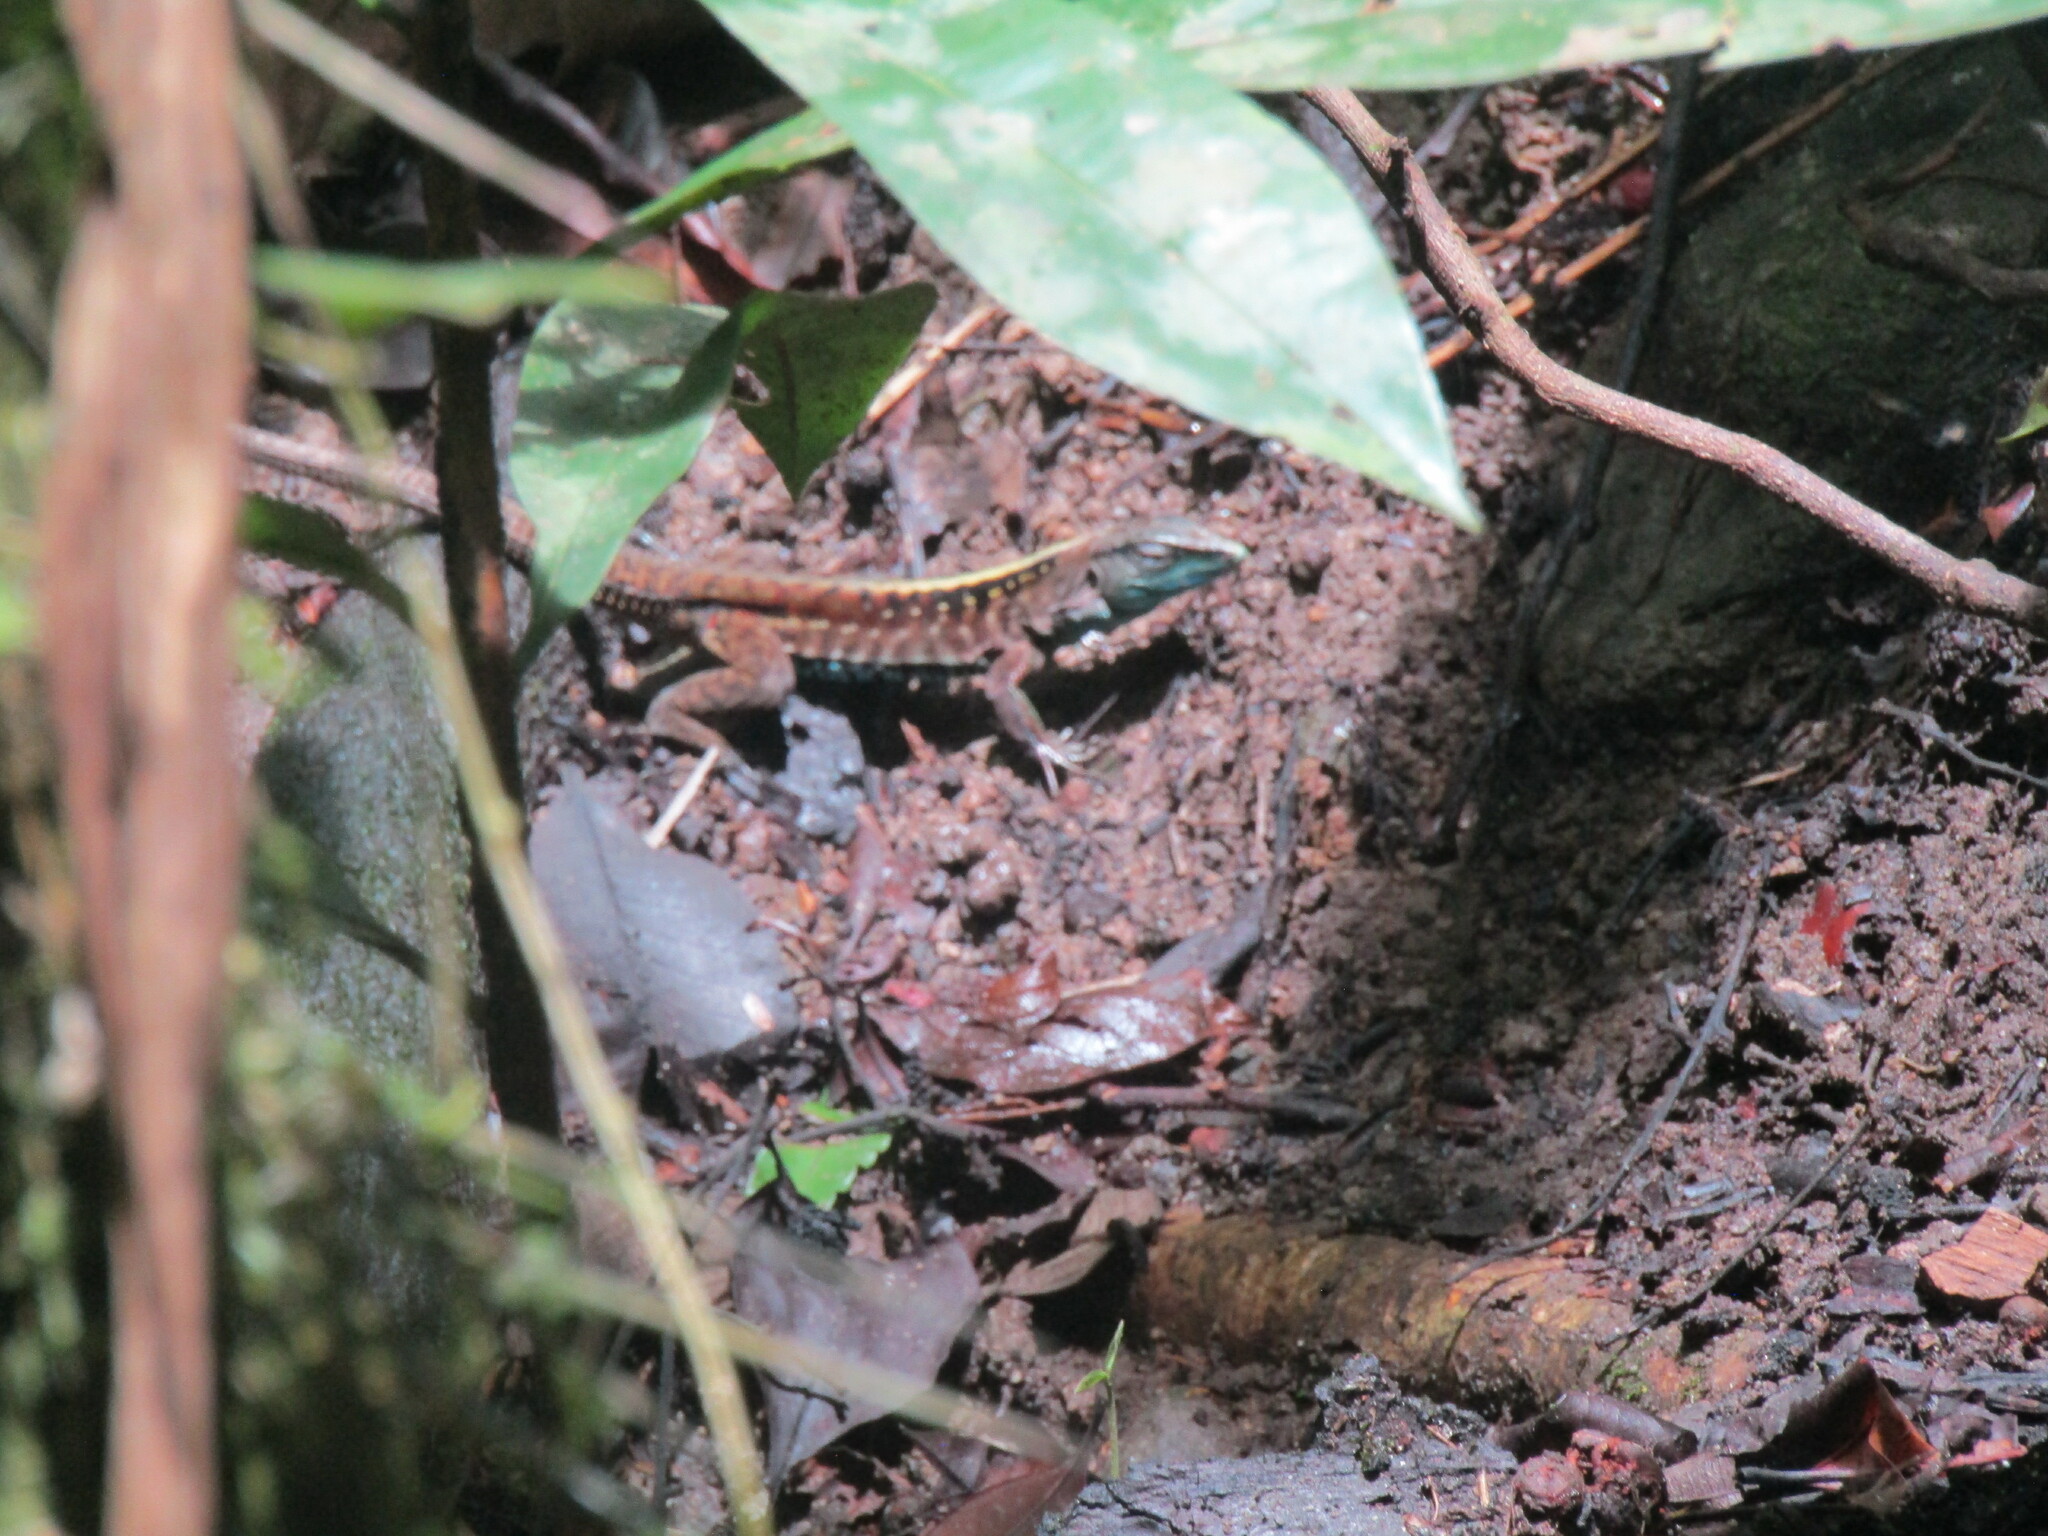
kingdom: Animalia
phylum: Chordata
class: Squamata
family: Teiidae
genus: Holcosus
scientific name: Holcosus festivus
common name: Middle american ameiva
